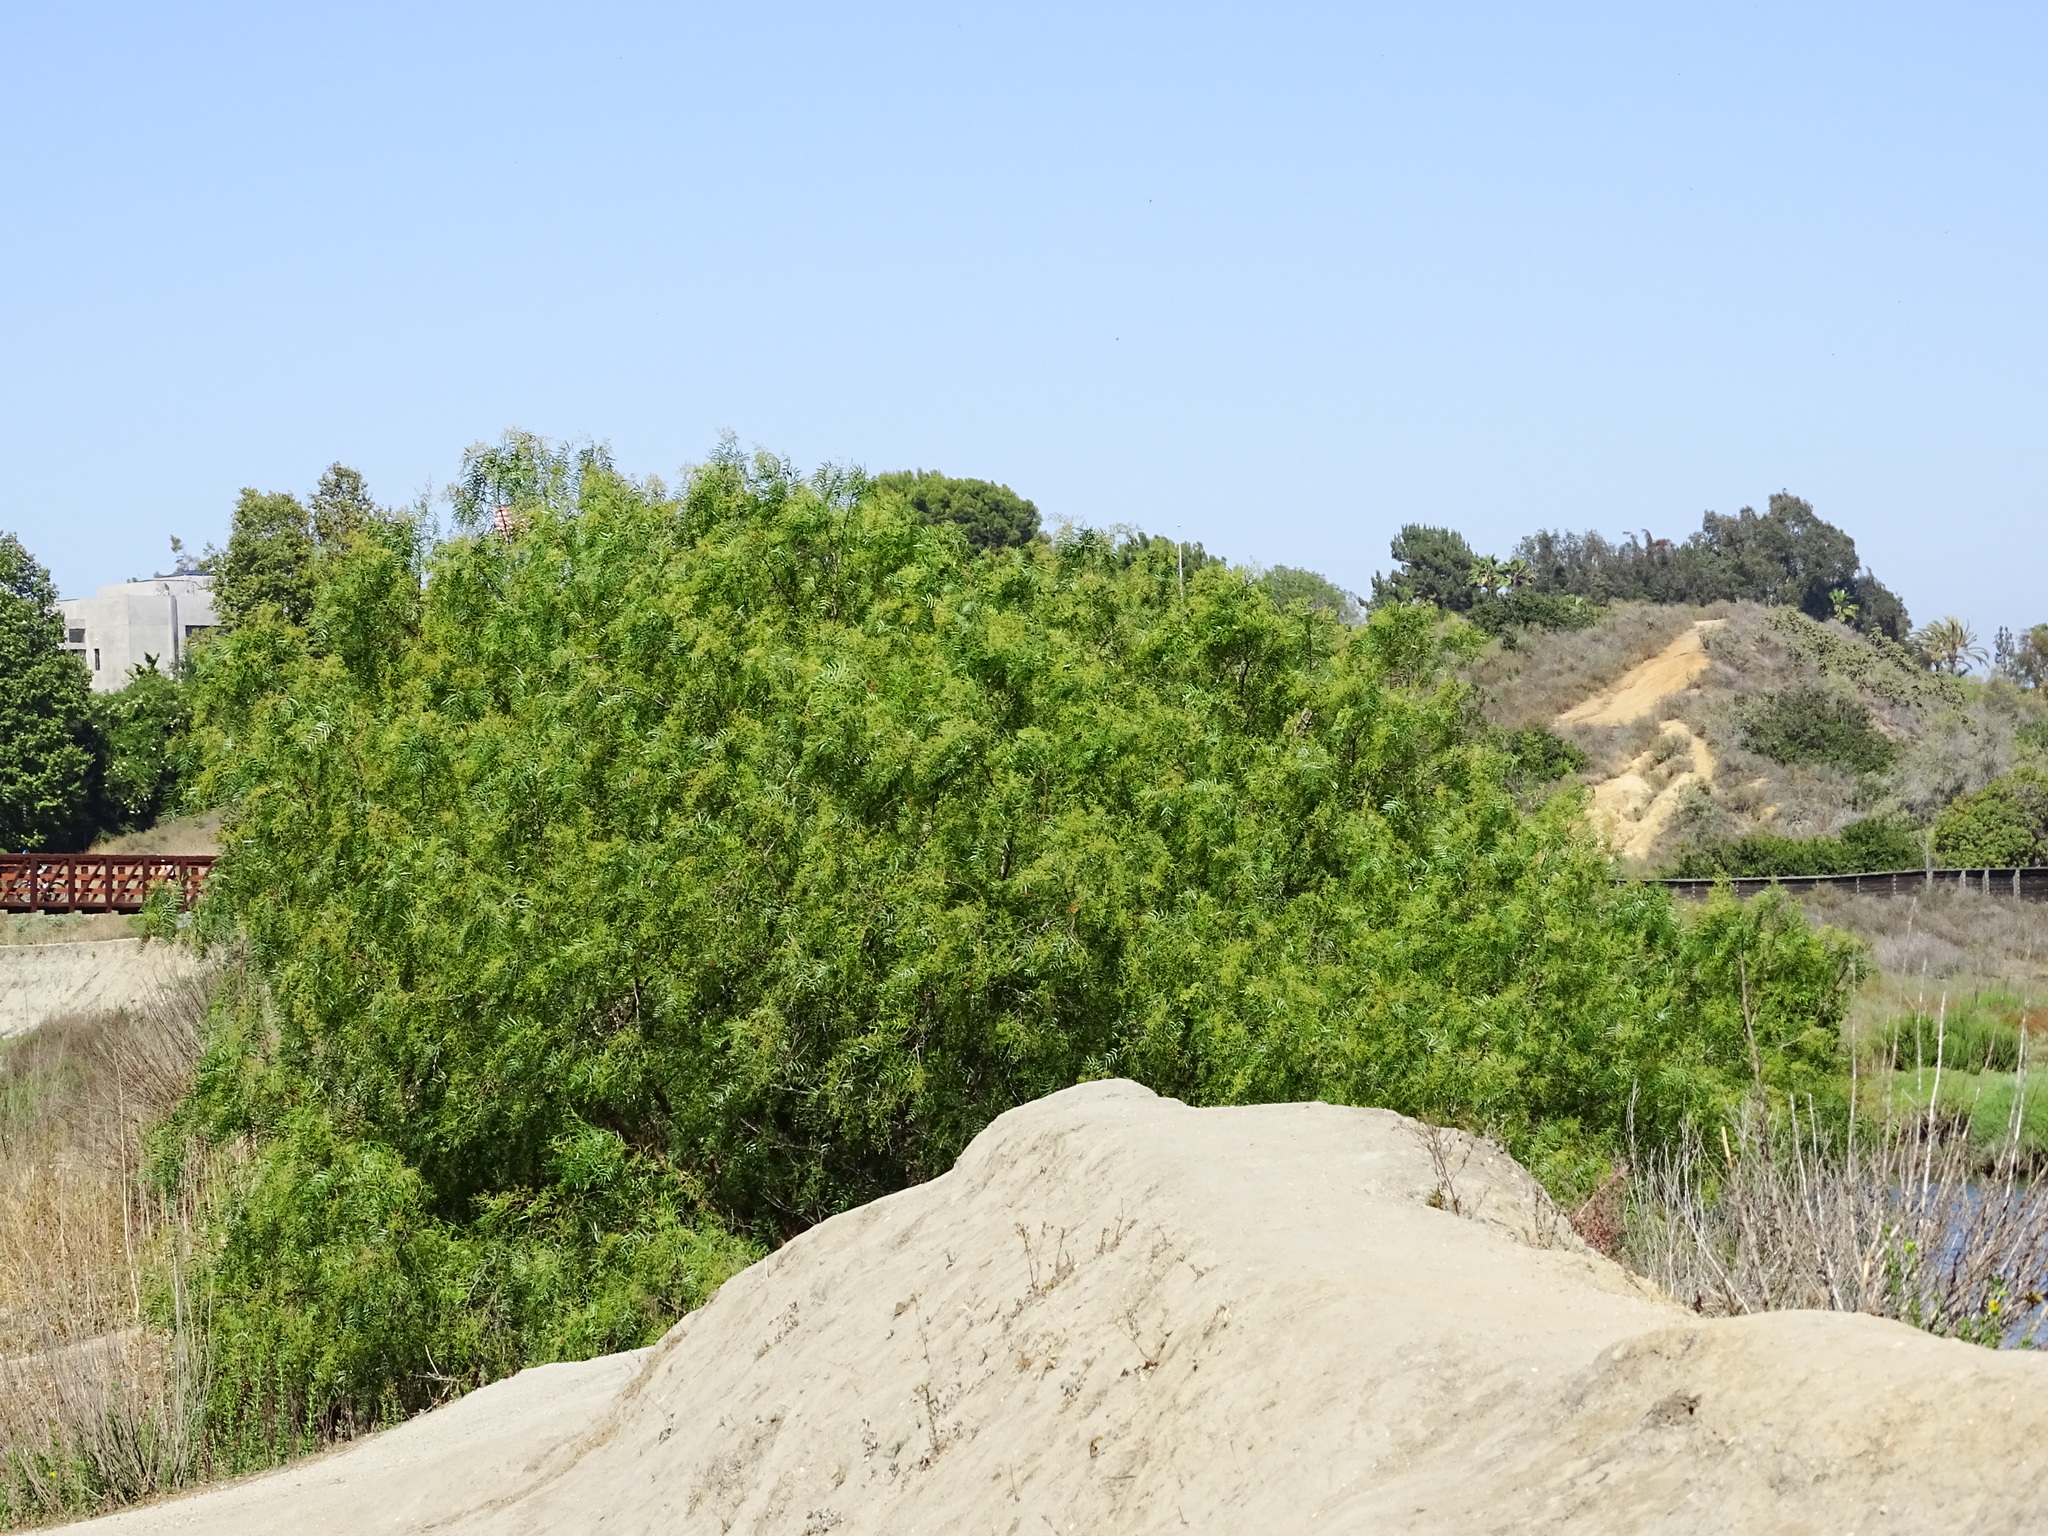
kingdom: Plantae
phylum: Tracheophyta
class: Magnoliopsida
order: Sapindales
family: Anacardiaceae
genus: Schinus
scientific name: Schinus molle
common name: Peruvian peppertree
